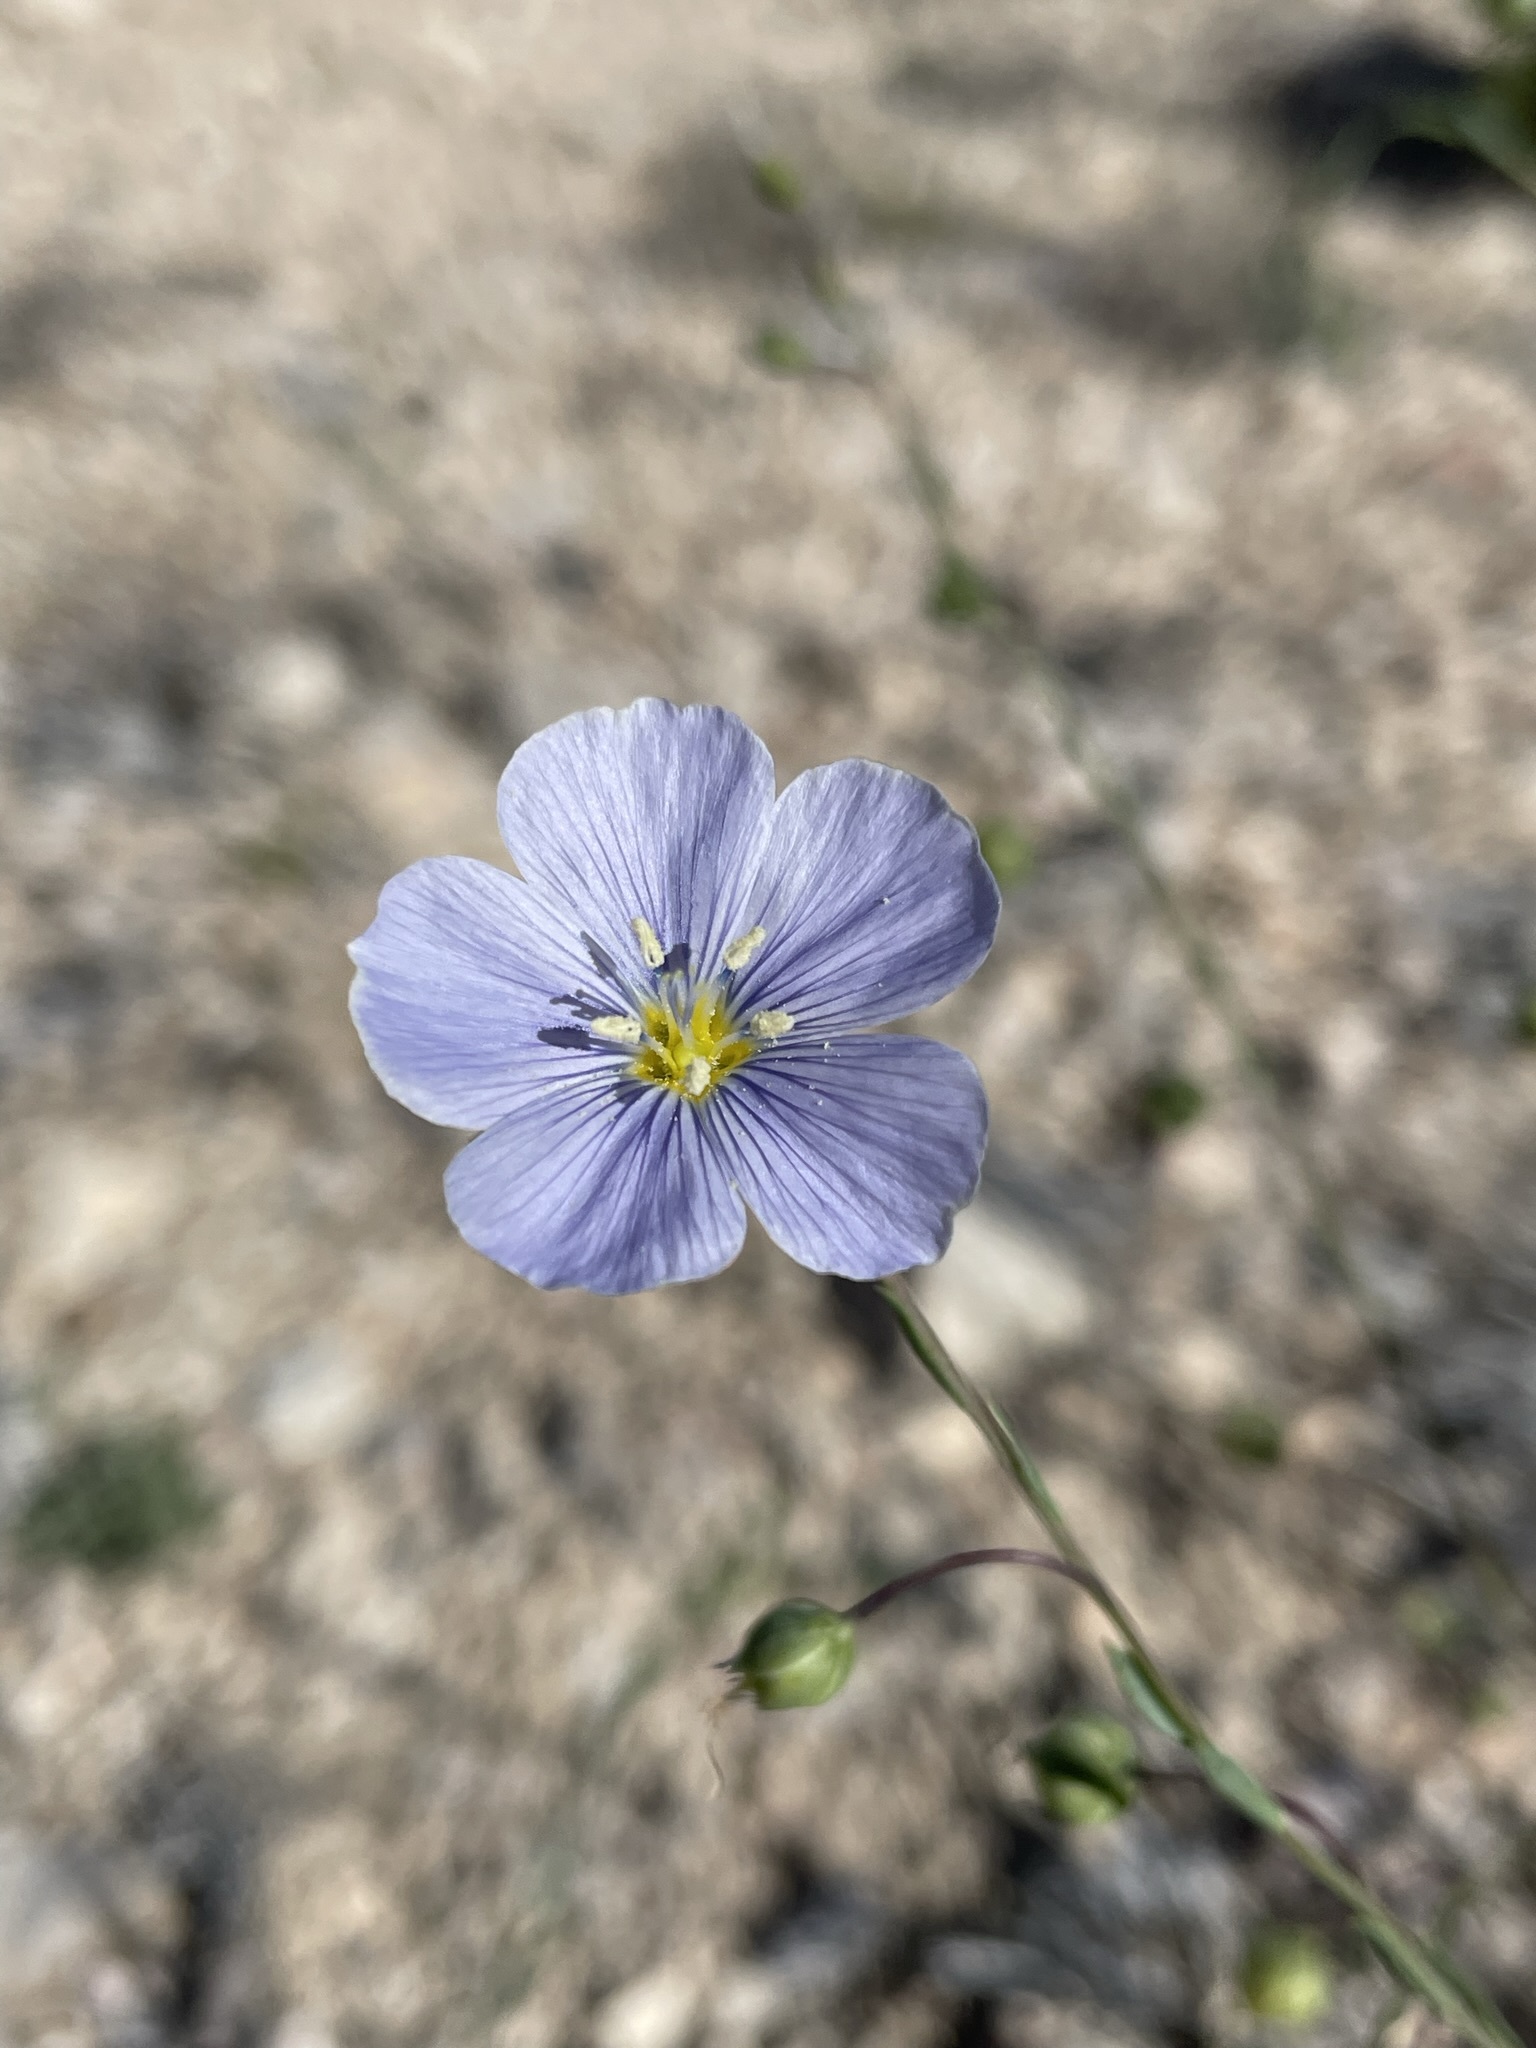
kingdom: Plantae
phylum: Tracheophyta
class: Magnoliopsida
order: Malpighiales
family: Linaceae
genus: Linum
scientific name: Linum lewisii
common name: Prairie flax
